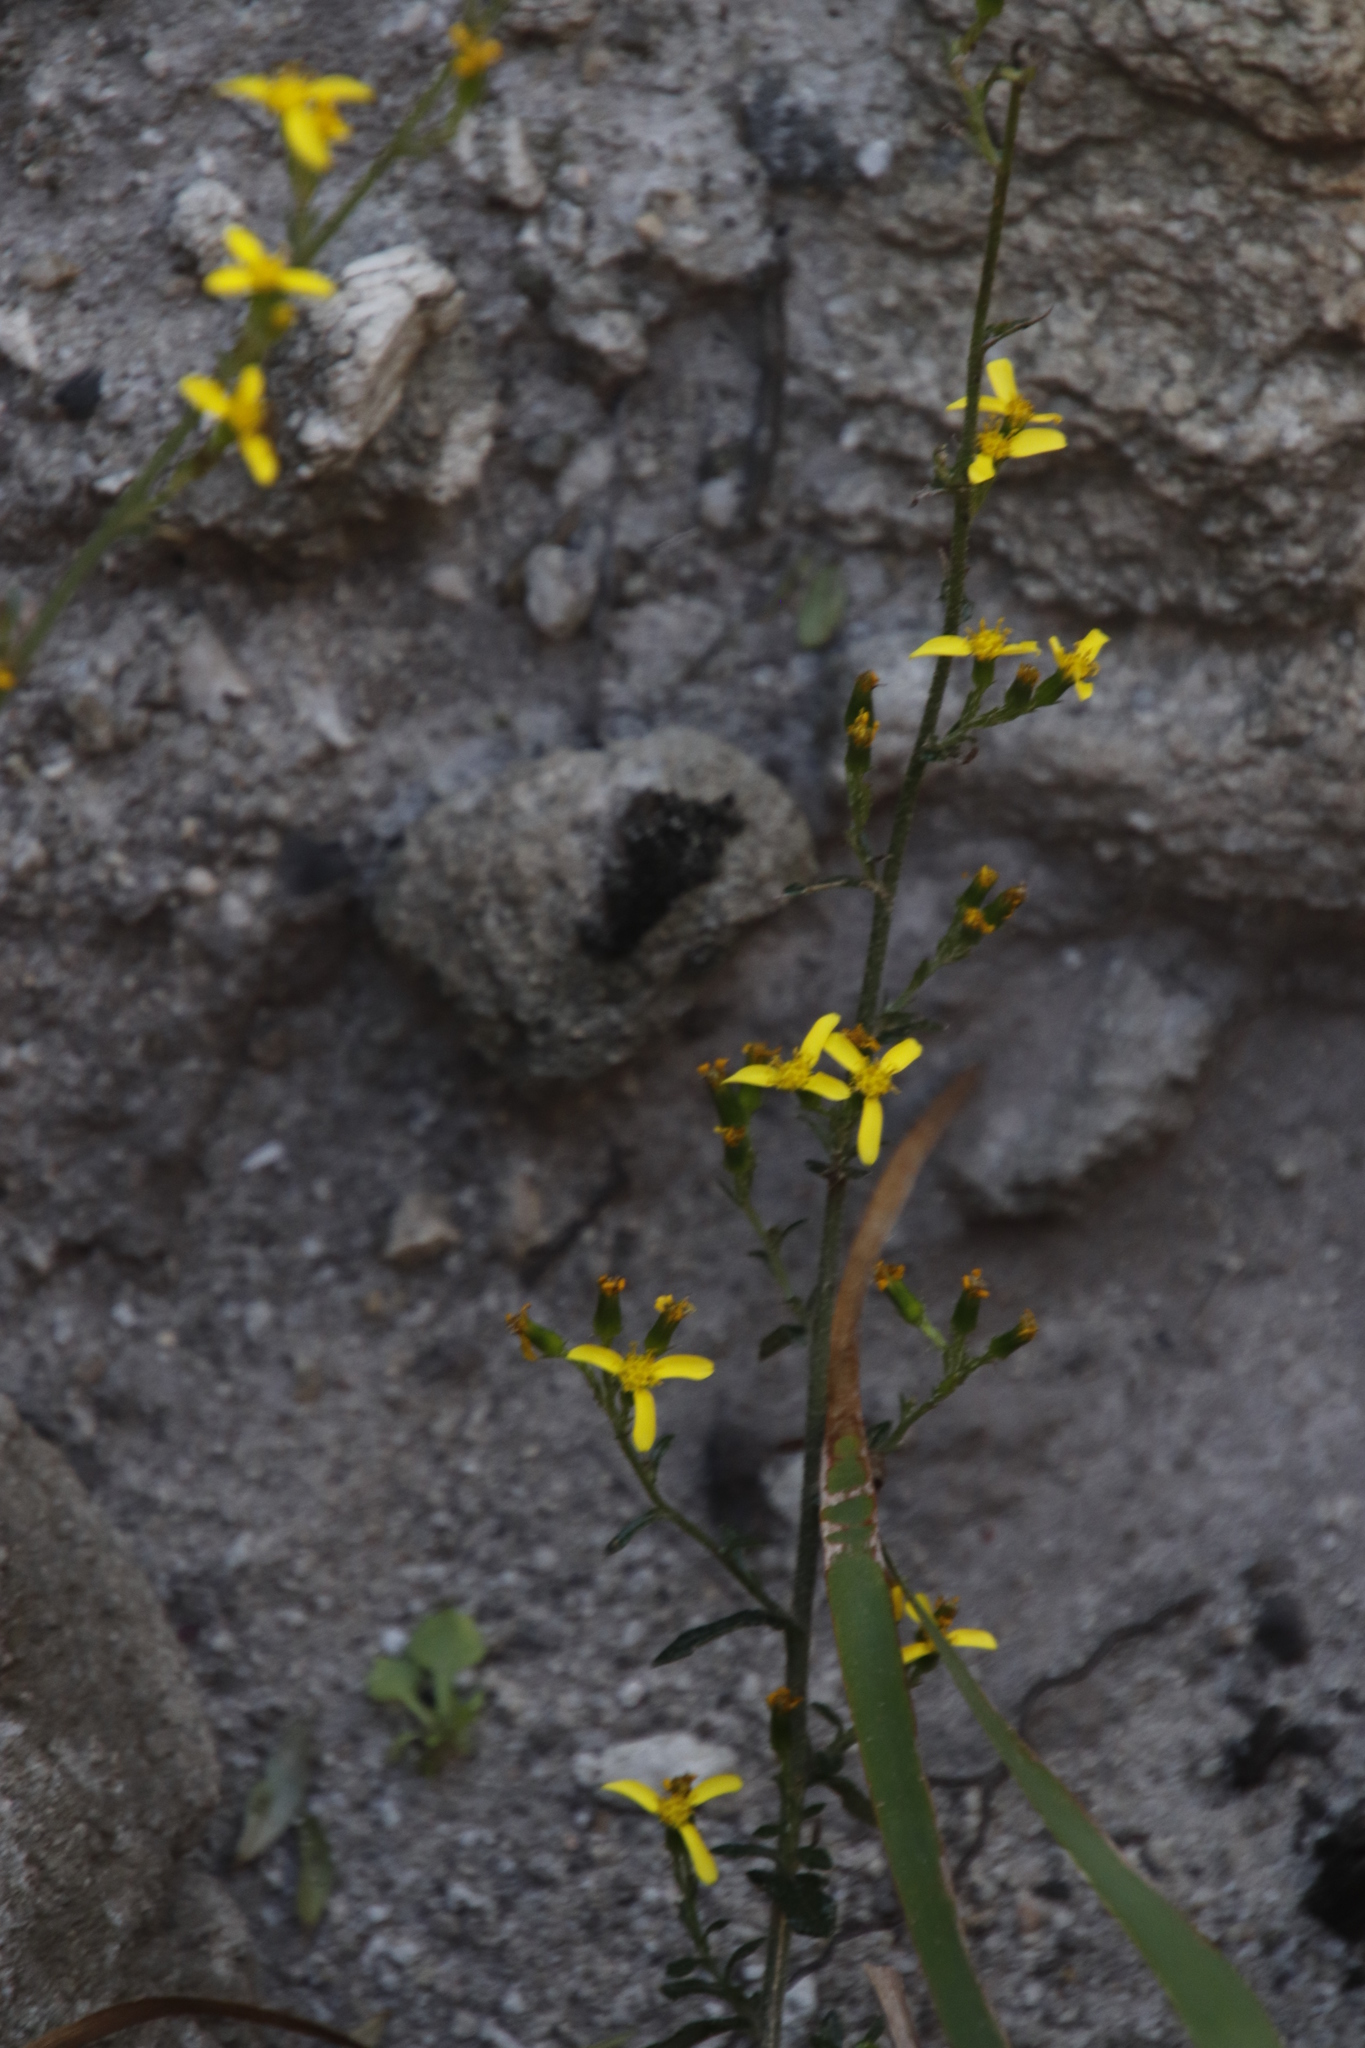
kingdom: Plantae
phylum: Tracheophyta
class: Magnoliopsida
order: Asterales
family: Asteraceae
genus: Senecio
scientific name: Senecio pubigerus
